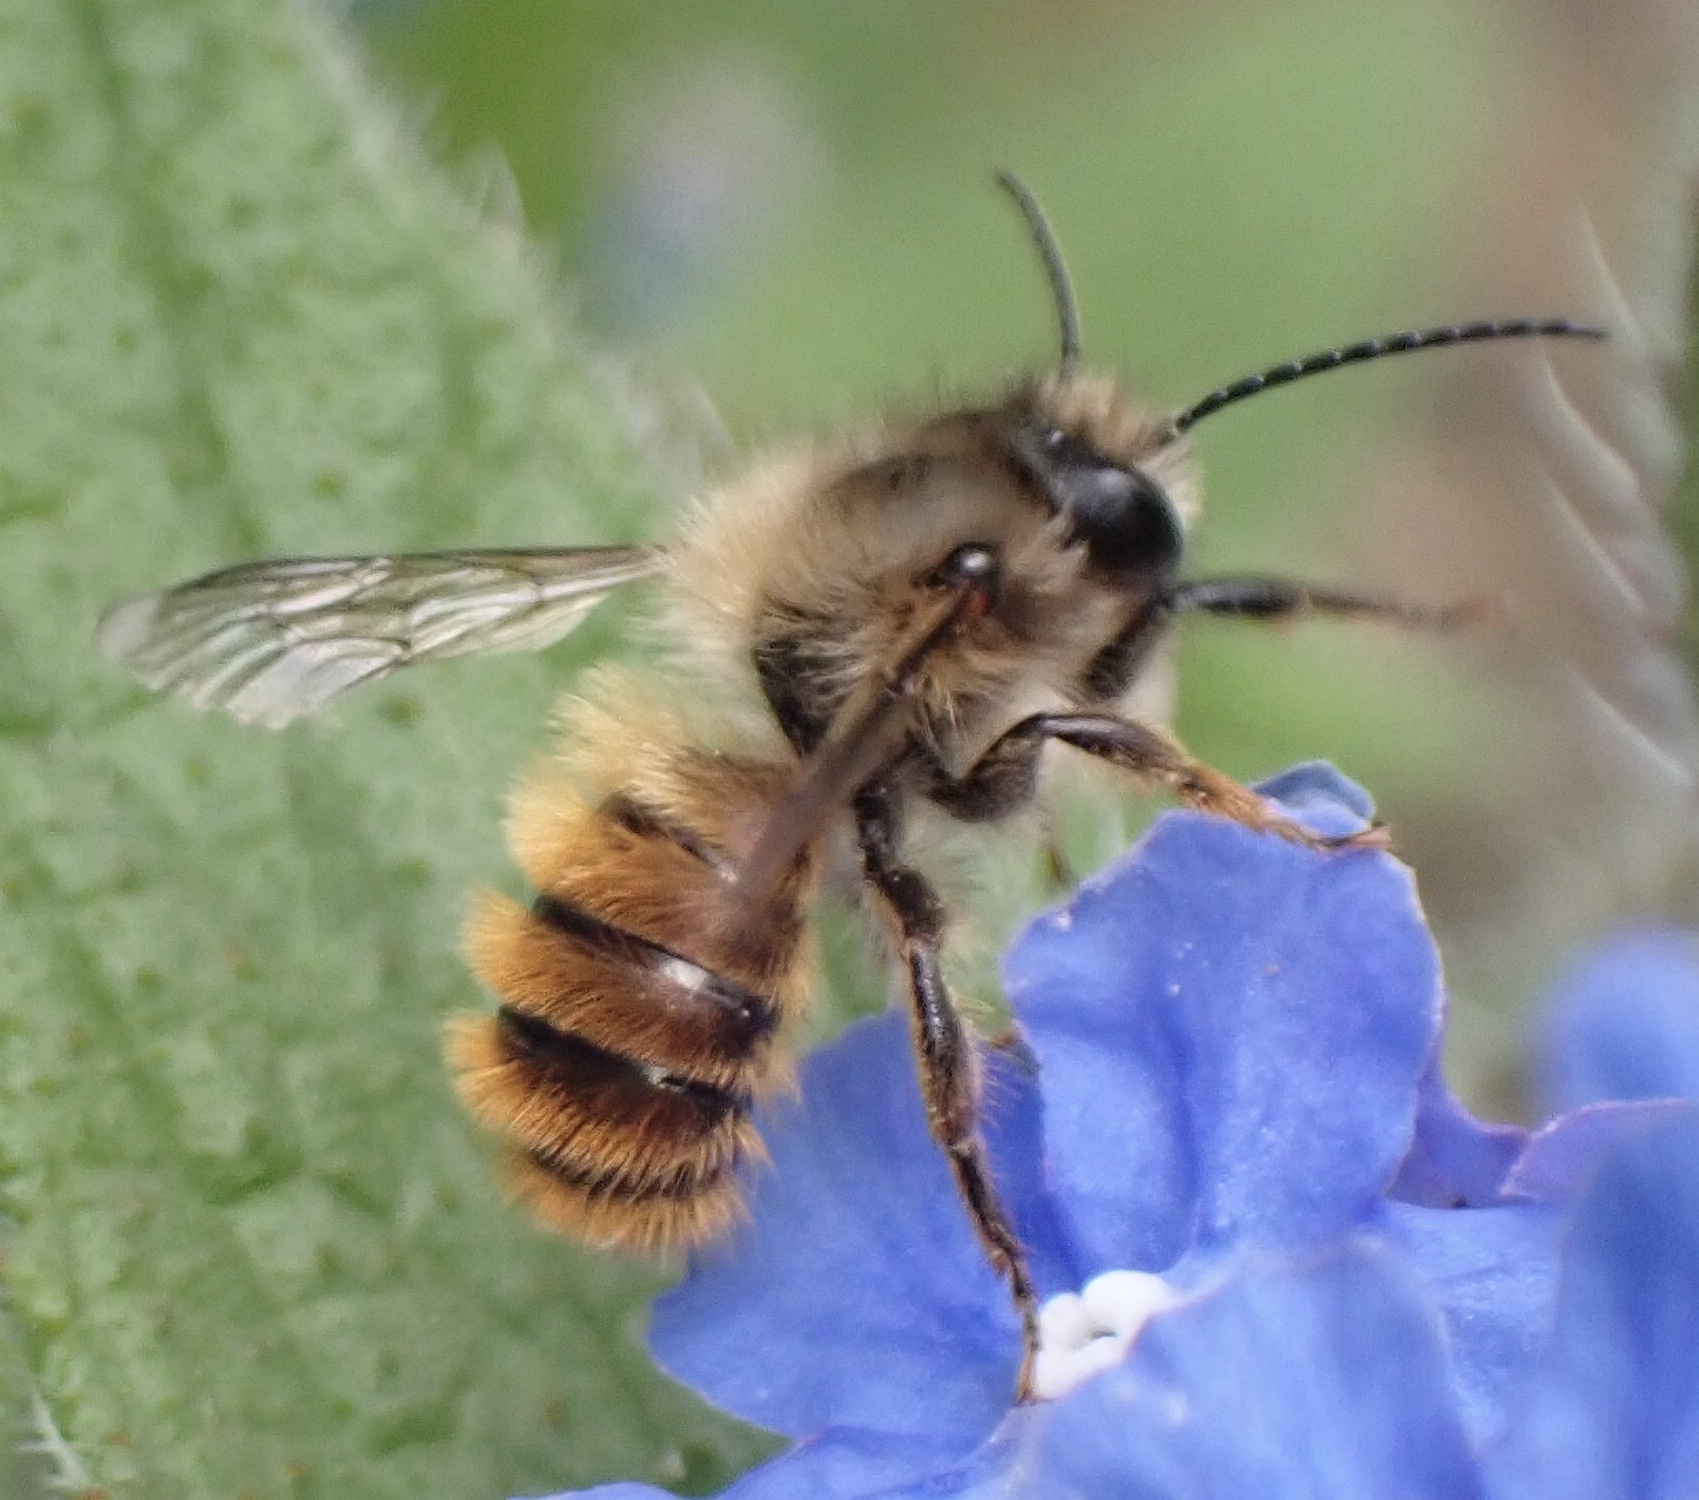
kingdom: Animalia
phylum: Arthropoda
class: Insecta
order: Hymenoptera
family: Megachilidae
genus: Osmia
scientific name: Osmia bicornis
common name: Red mason bee
